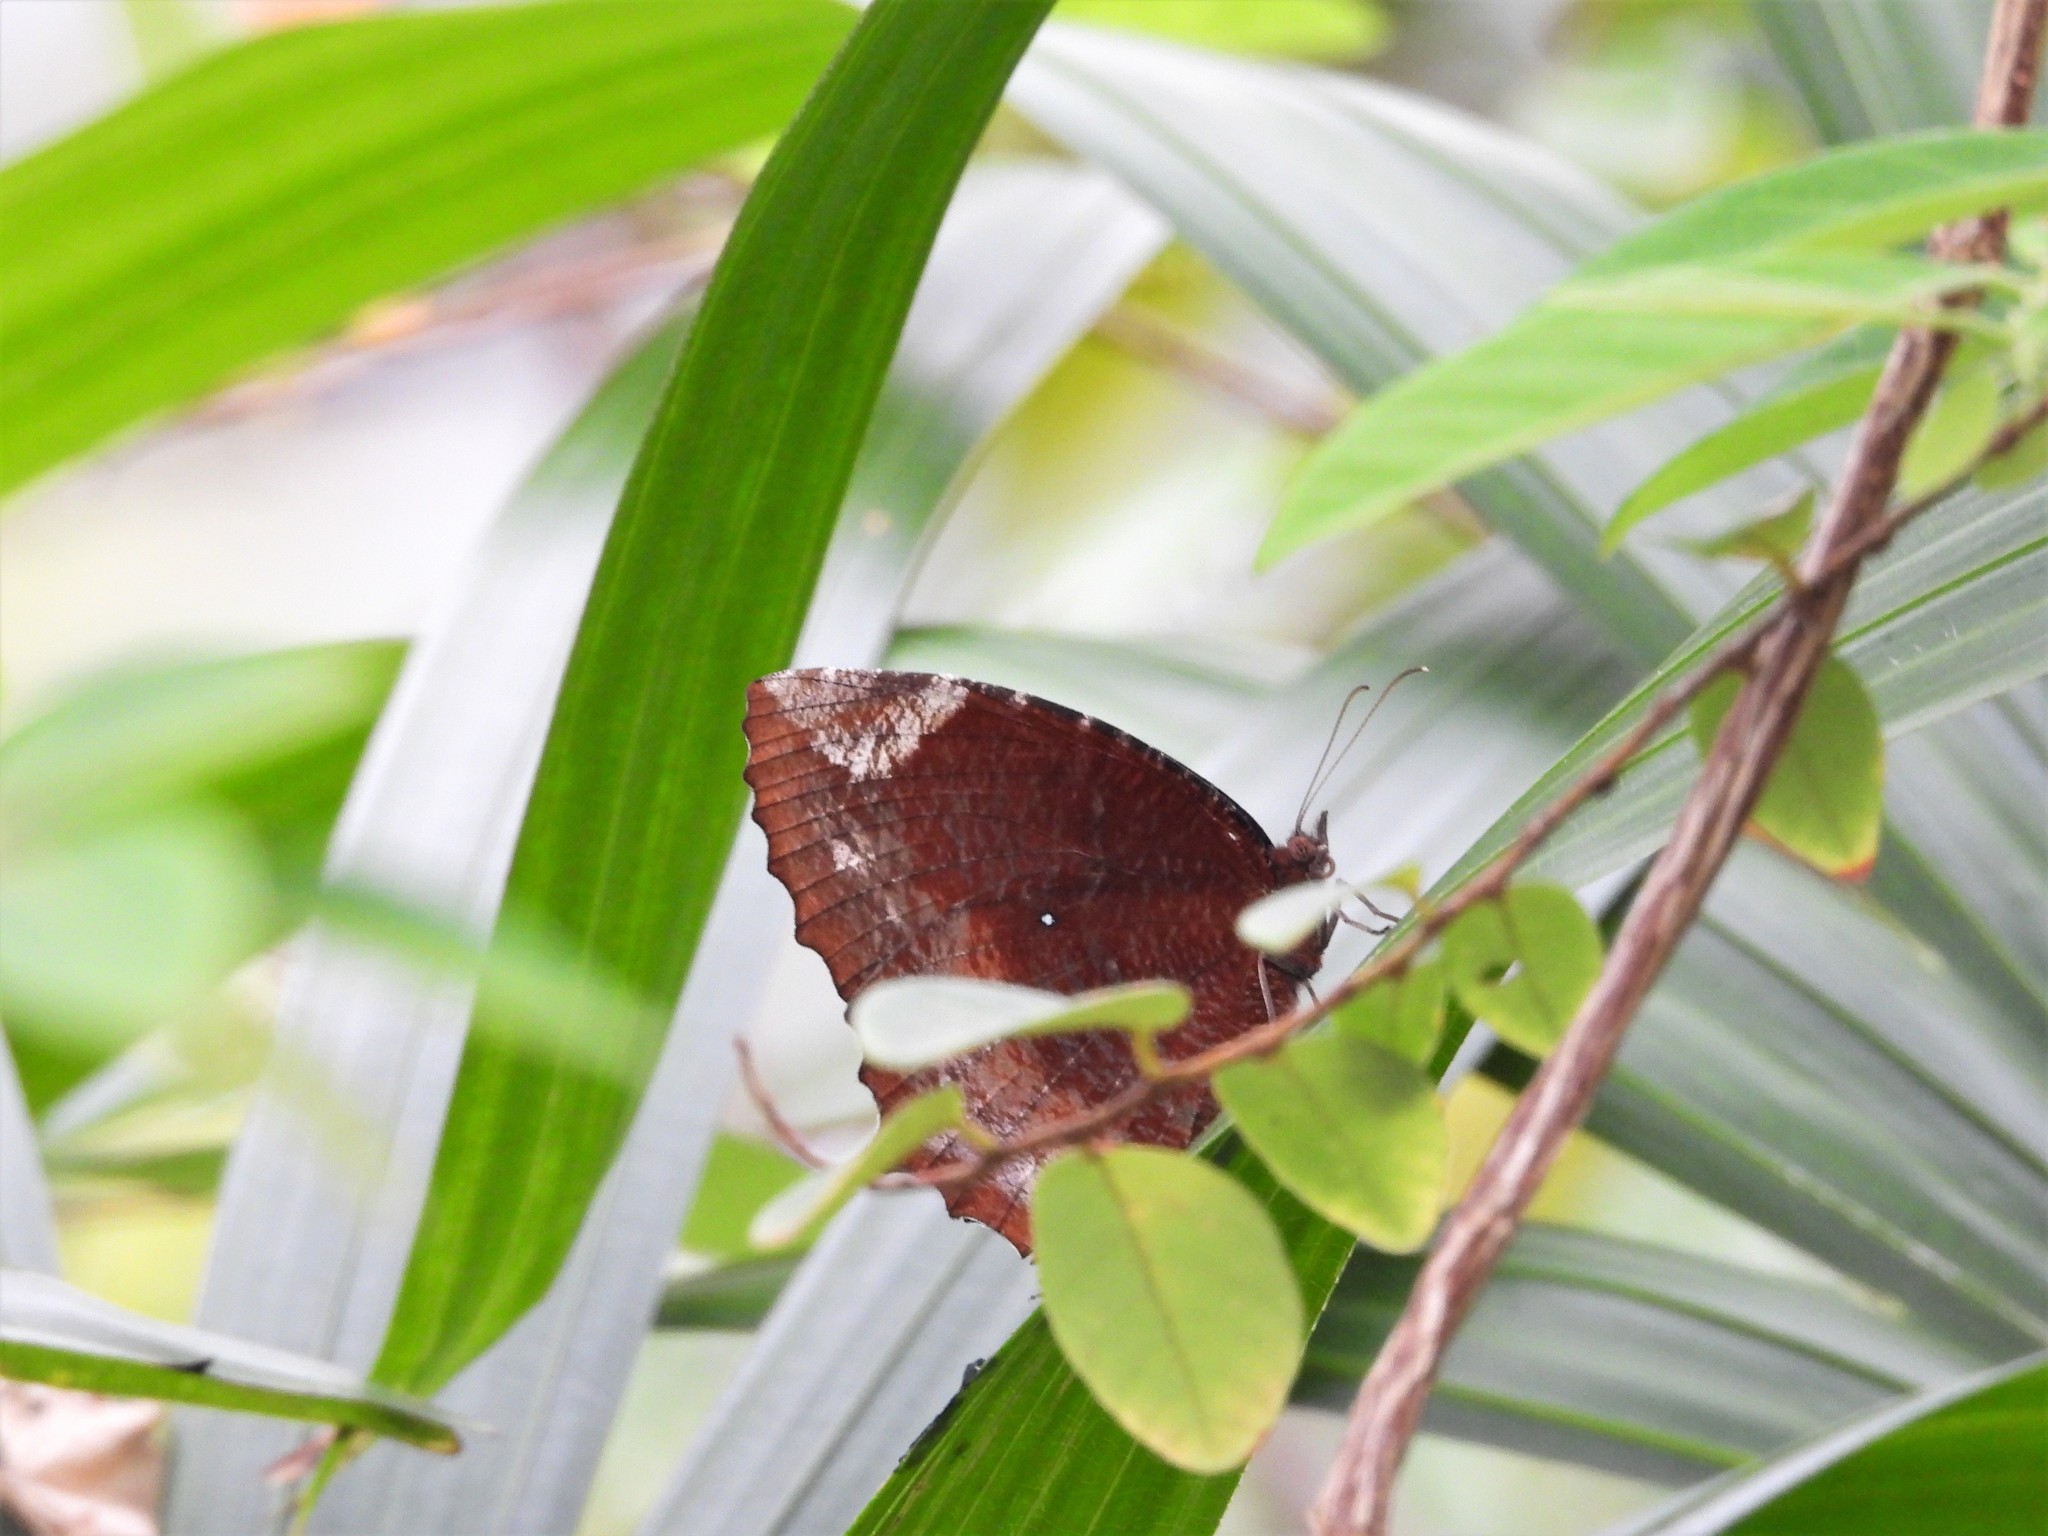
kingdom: Animalia
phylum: Arthropoda
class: Insecta
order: Lepidoptera
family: Nymphalidae
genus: Elymnias
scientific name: Elymnias hypermnestra
